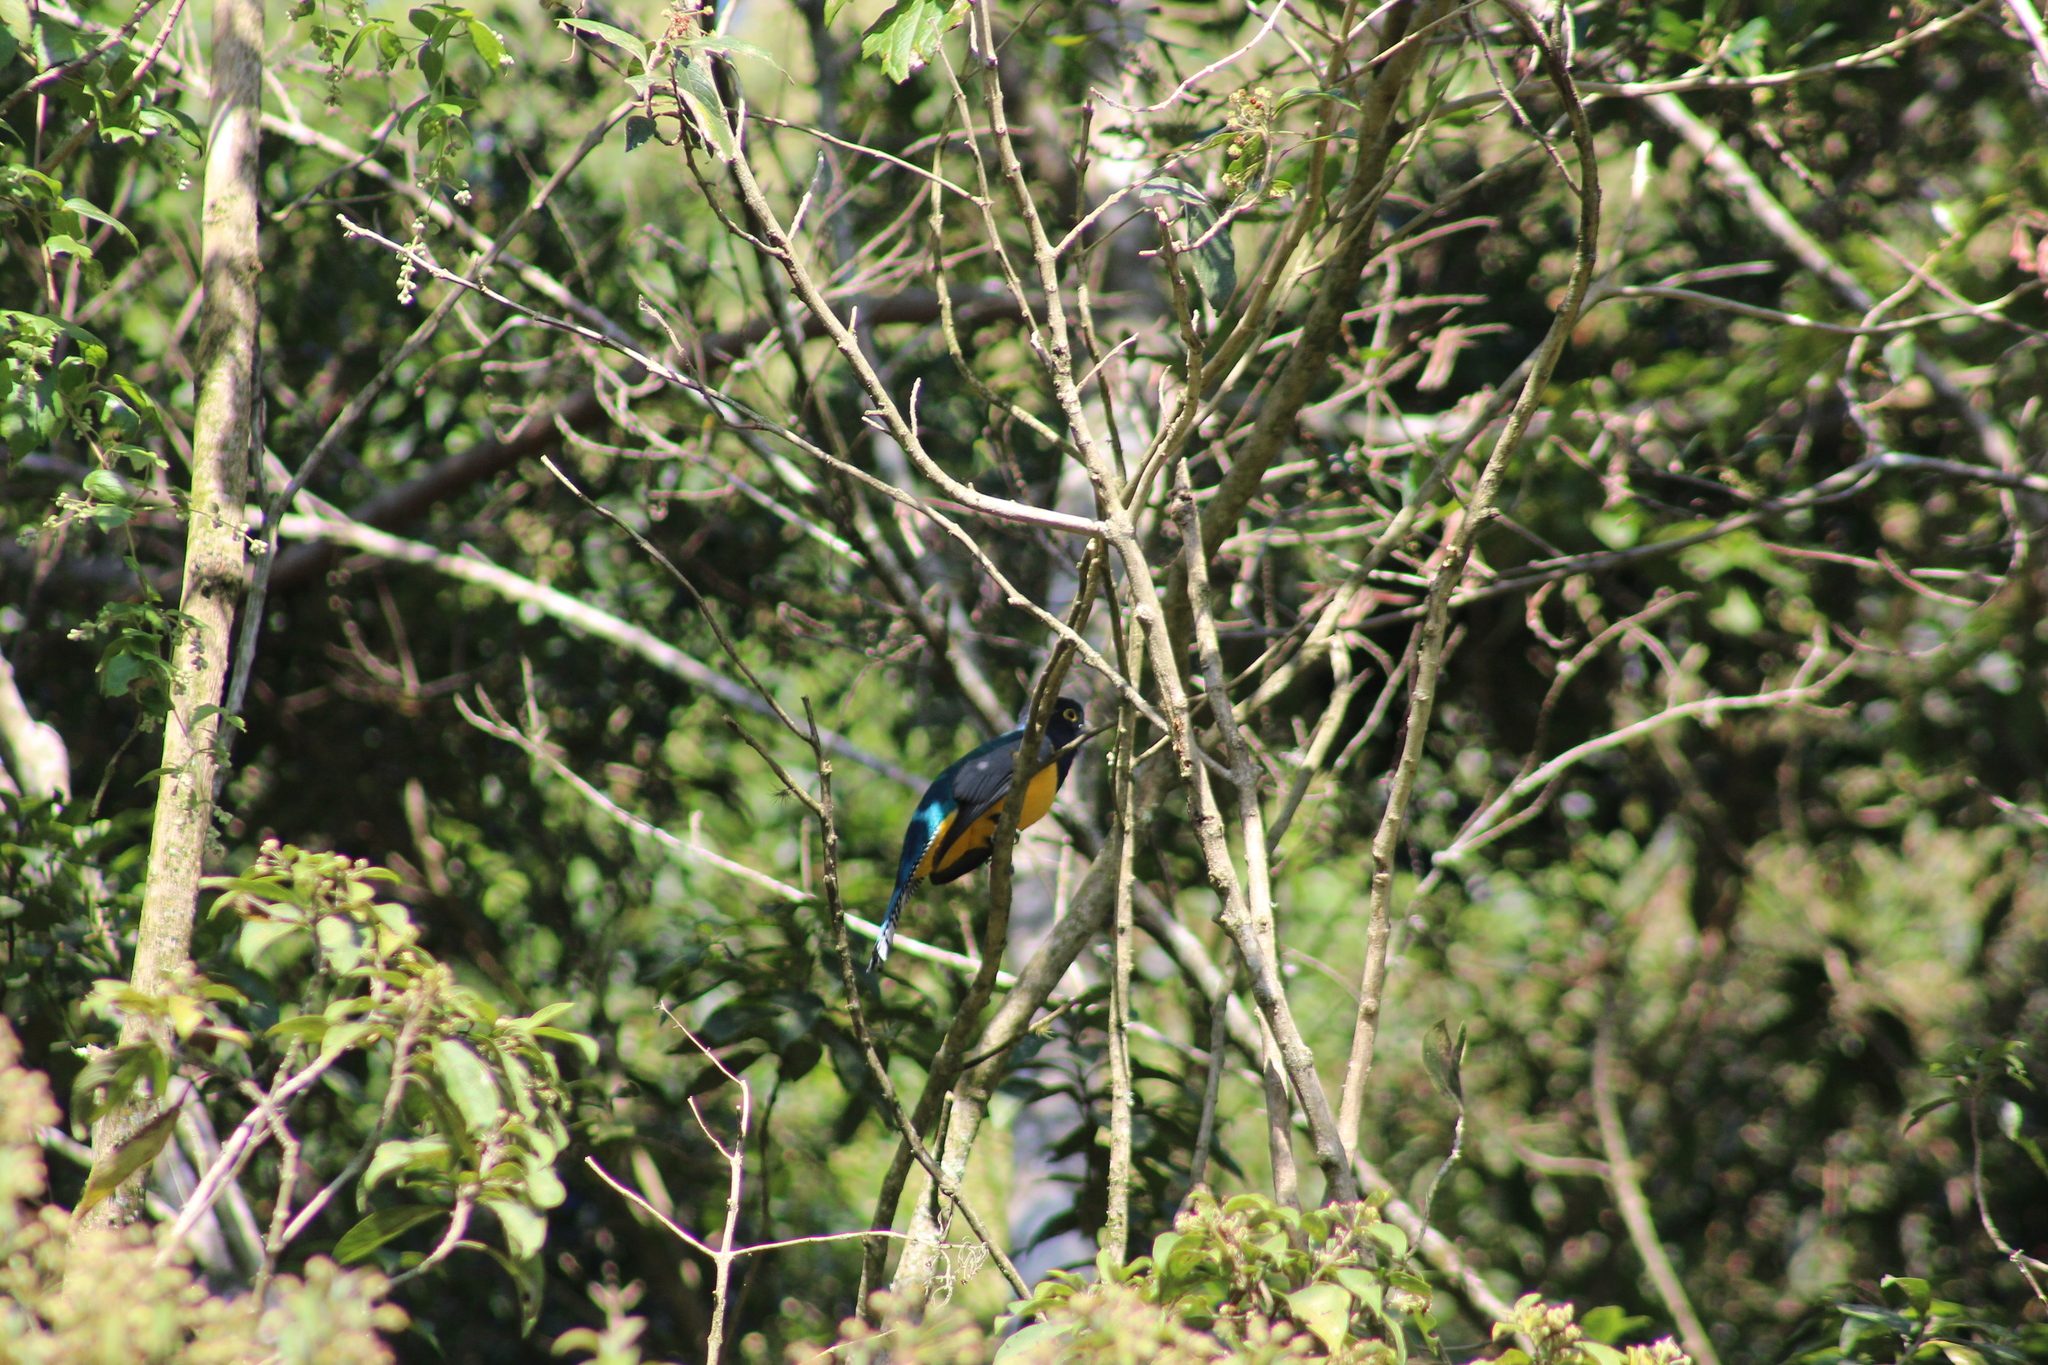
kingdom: Animalia
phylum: Chordata
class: Aves
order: Trogoniformes
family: Trogonidae
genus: Trogon
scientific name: Trogon caligatus
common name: Gartered trogon
